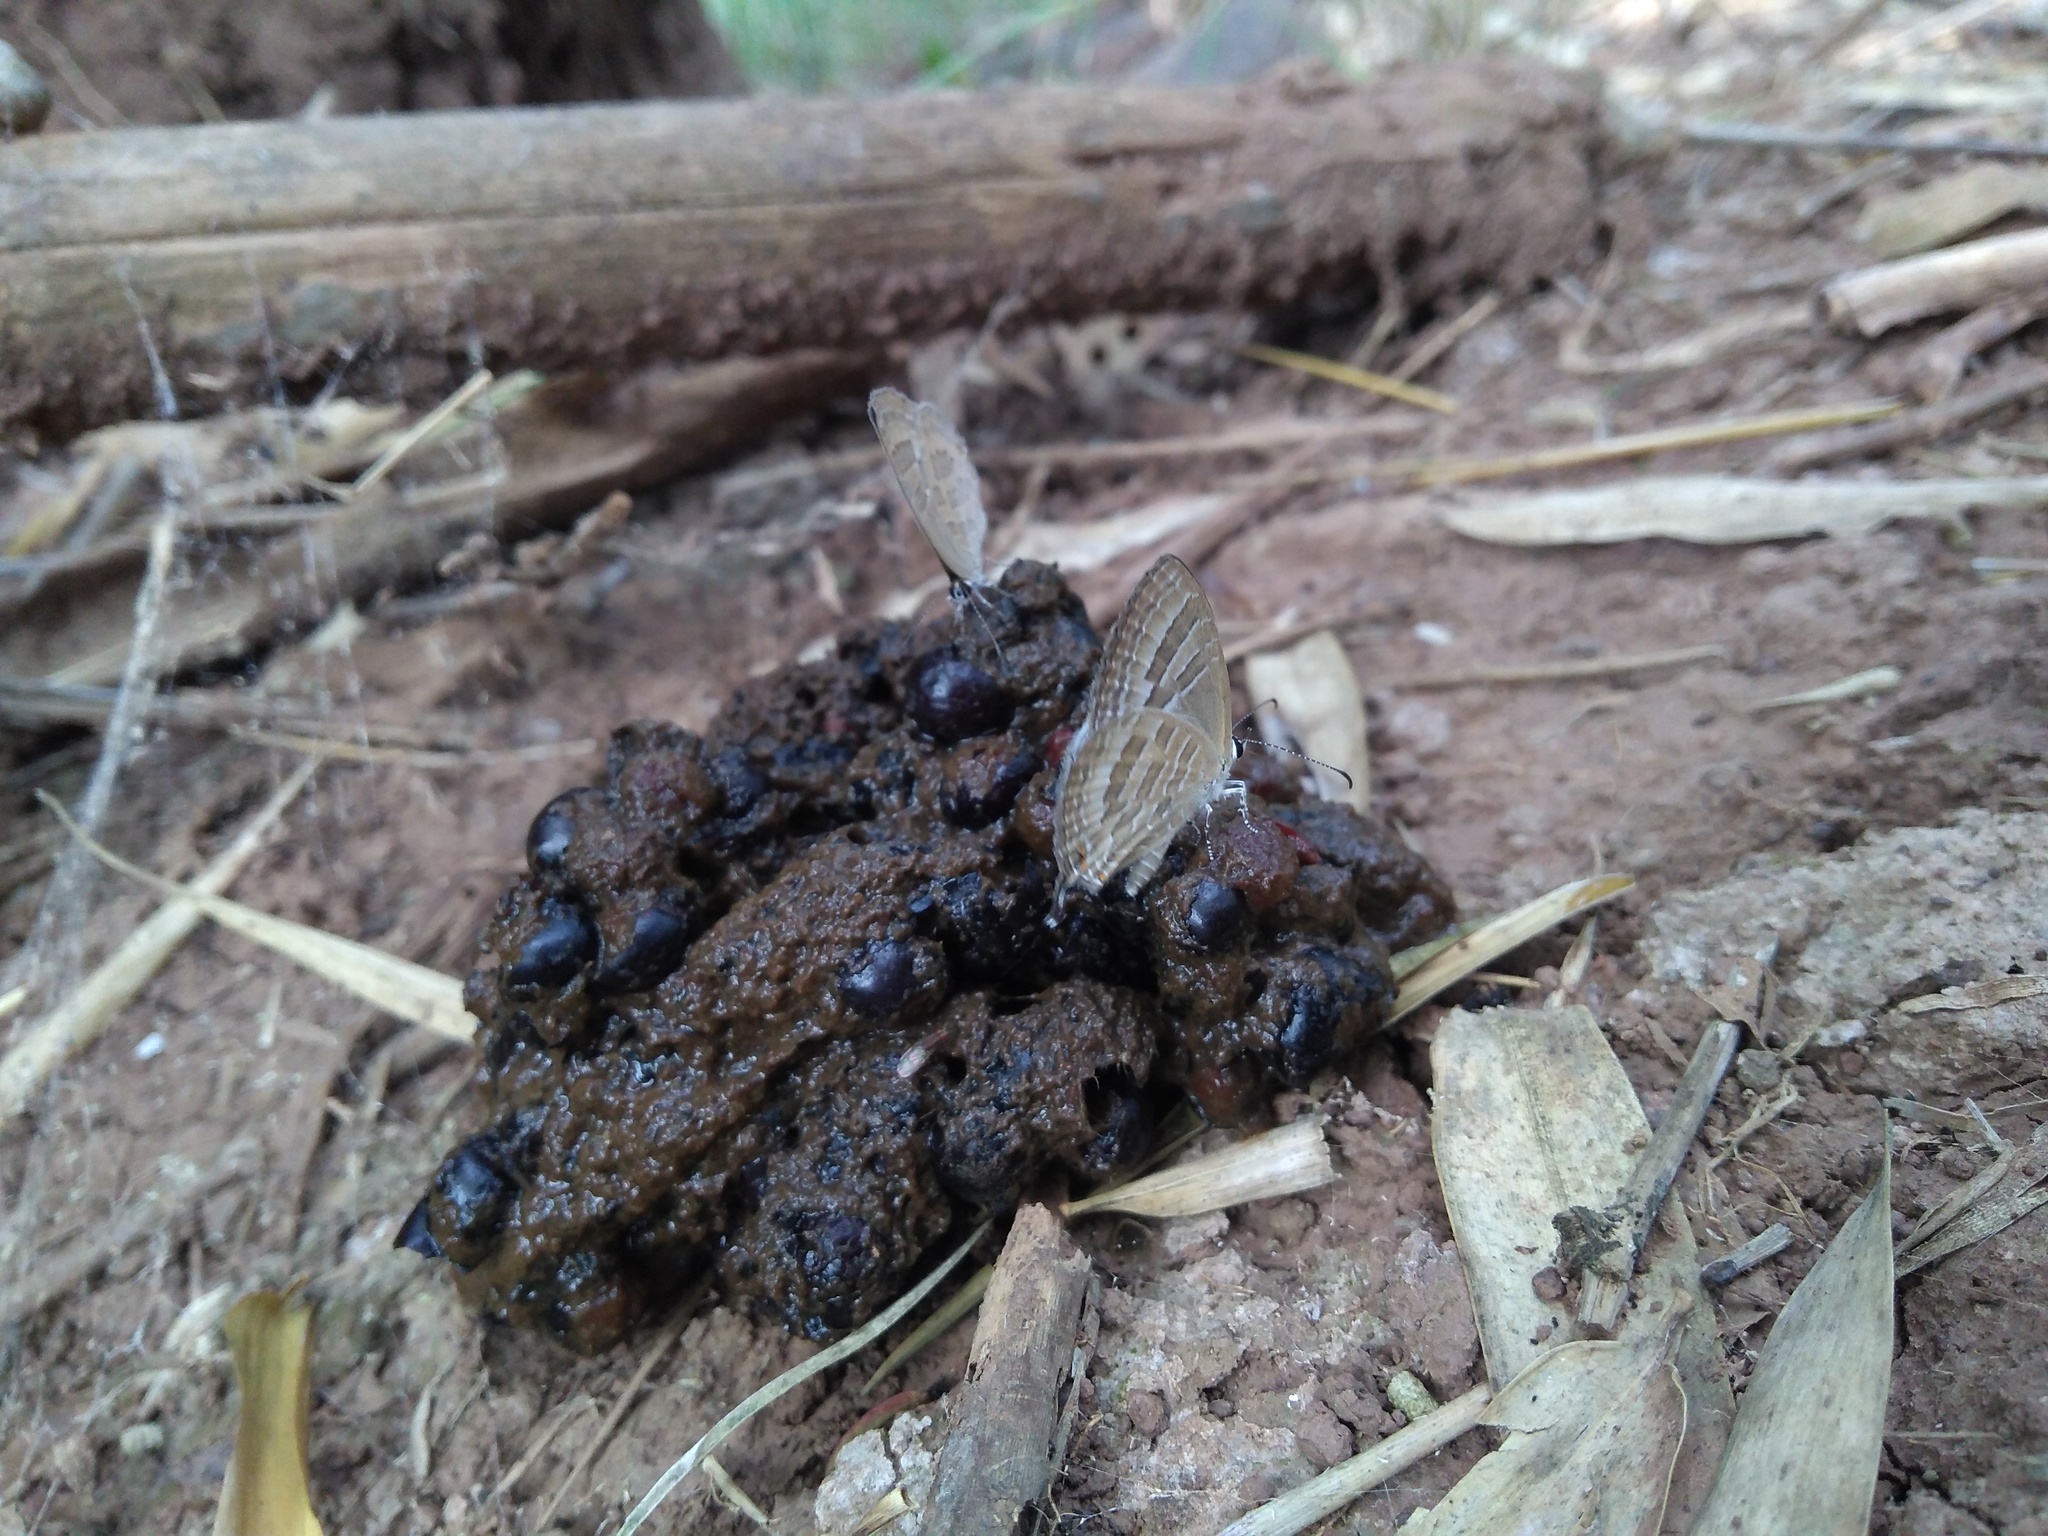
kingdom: Animalia
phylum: Arthropoda
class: Insecta
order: Lepidoptera
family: Lycaenidae
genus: Jamides
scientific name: Jamides celeno
